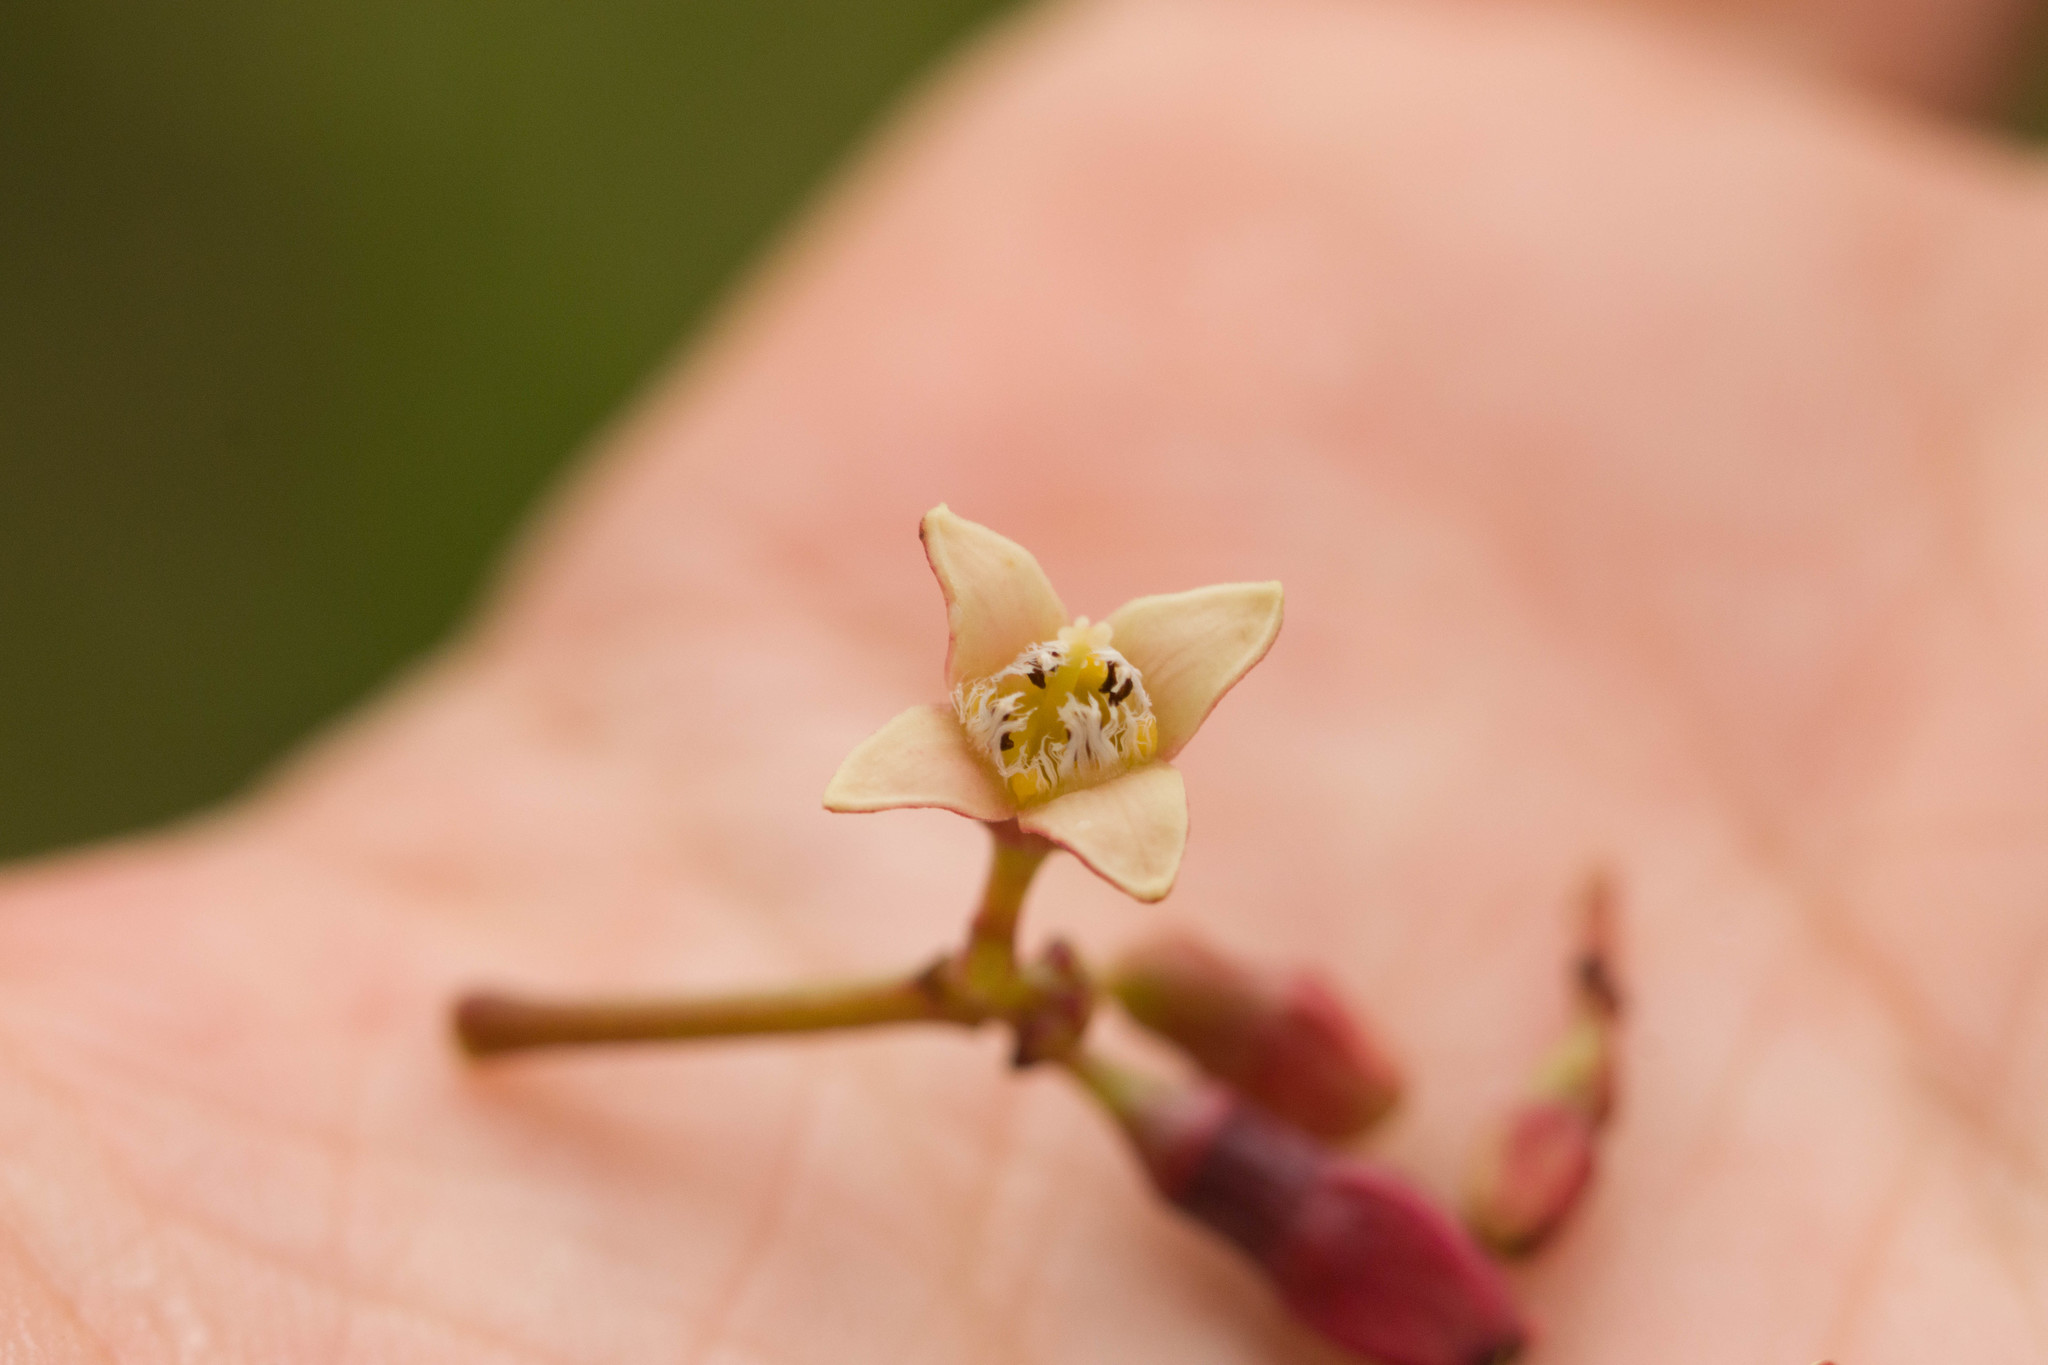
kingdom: Plantae
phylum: Tracheophyta
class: Magnoliopsida
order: Santalales
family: Santalaceae
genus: Santalum
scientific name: Santalum freycinetianum
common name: Lanai sandalwood
